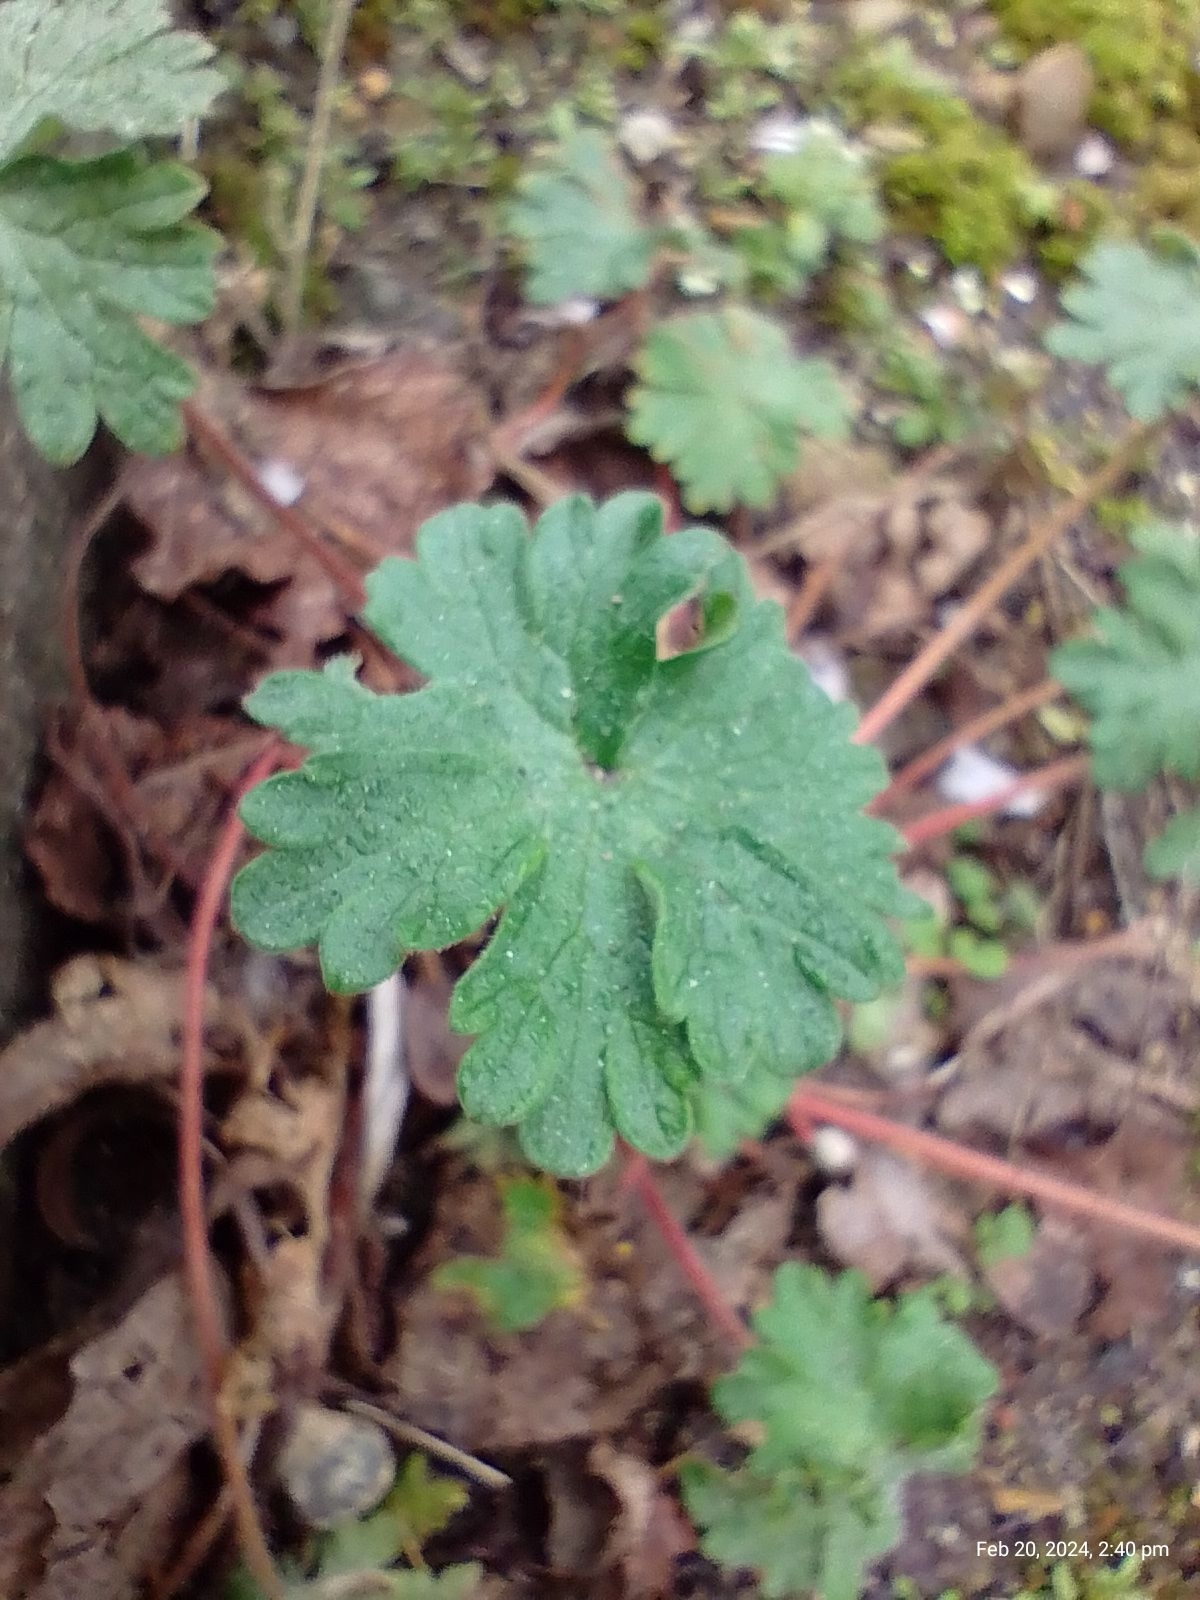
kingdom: Plantae
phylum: Tracheophyta
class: Magnoliopsida
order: Geraniales
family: Geraniaceae
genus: Geranium
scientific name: Geranium molle
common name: Dove's-foot crane's-bill
